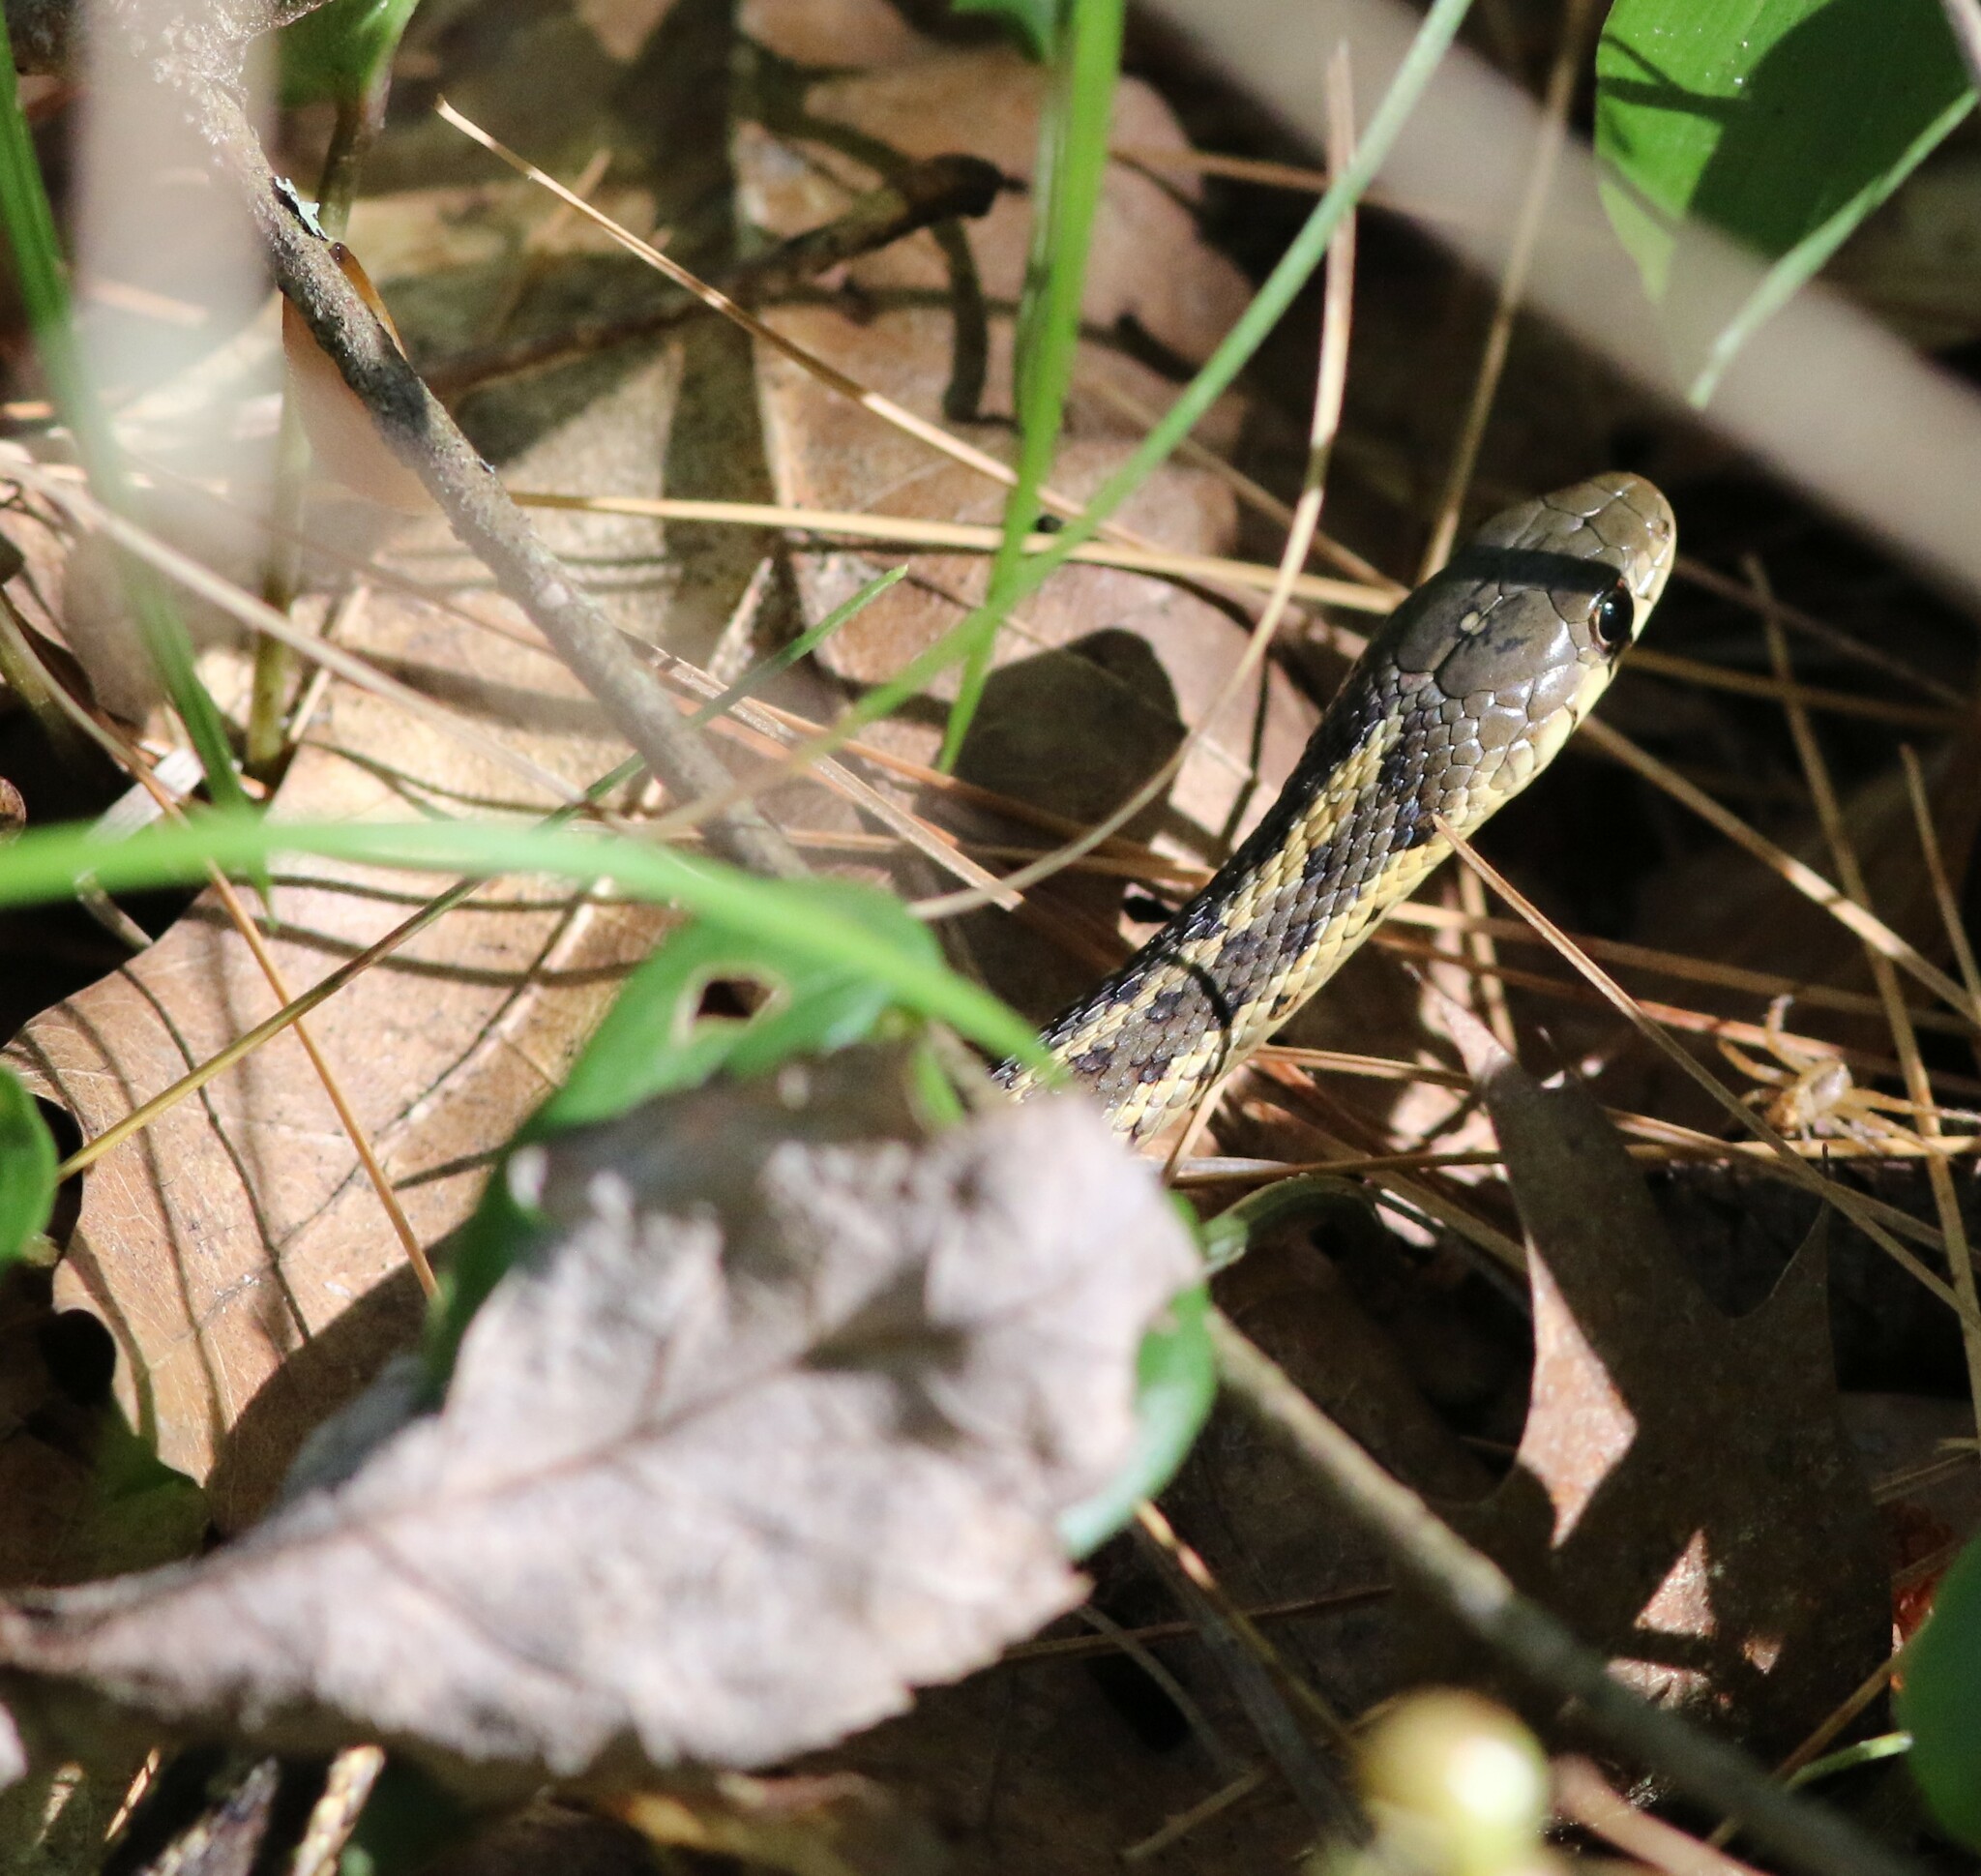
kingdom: Animalia
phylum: Chordata
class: Squamata
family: Colubridae
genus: Thamnophis
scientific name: Thamnophis sirtalis
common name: Common garter snake
